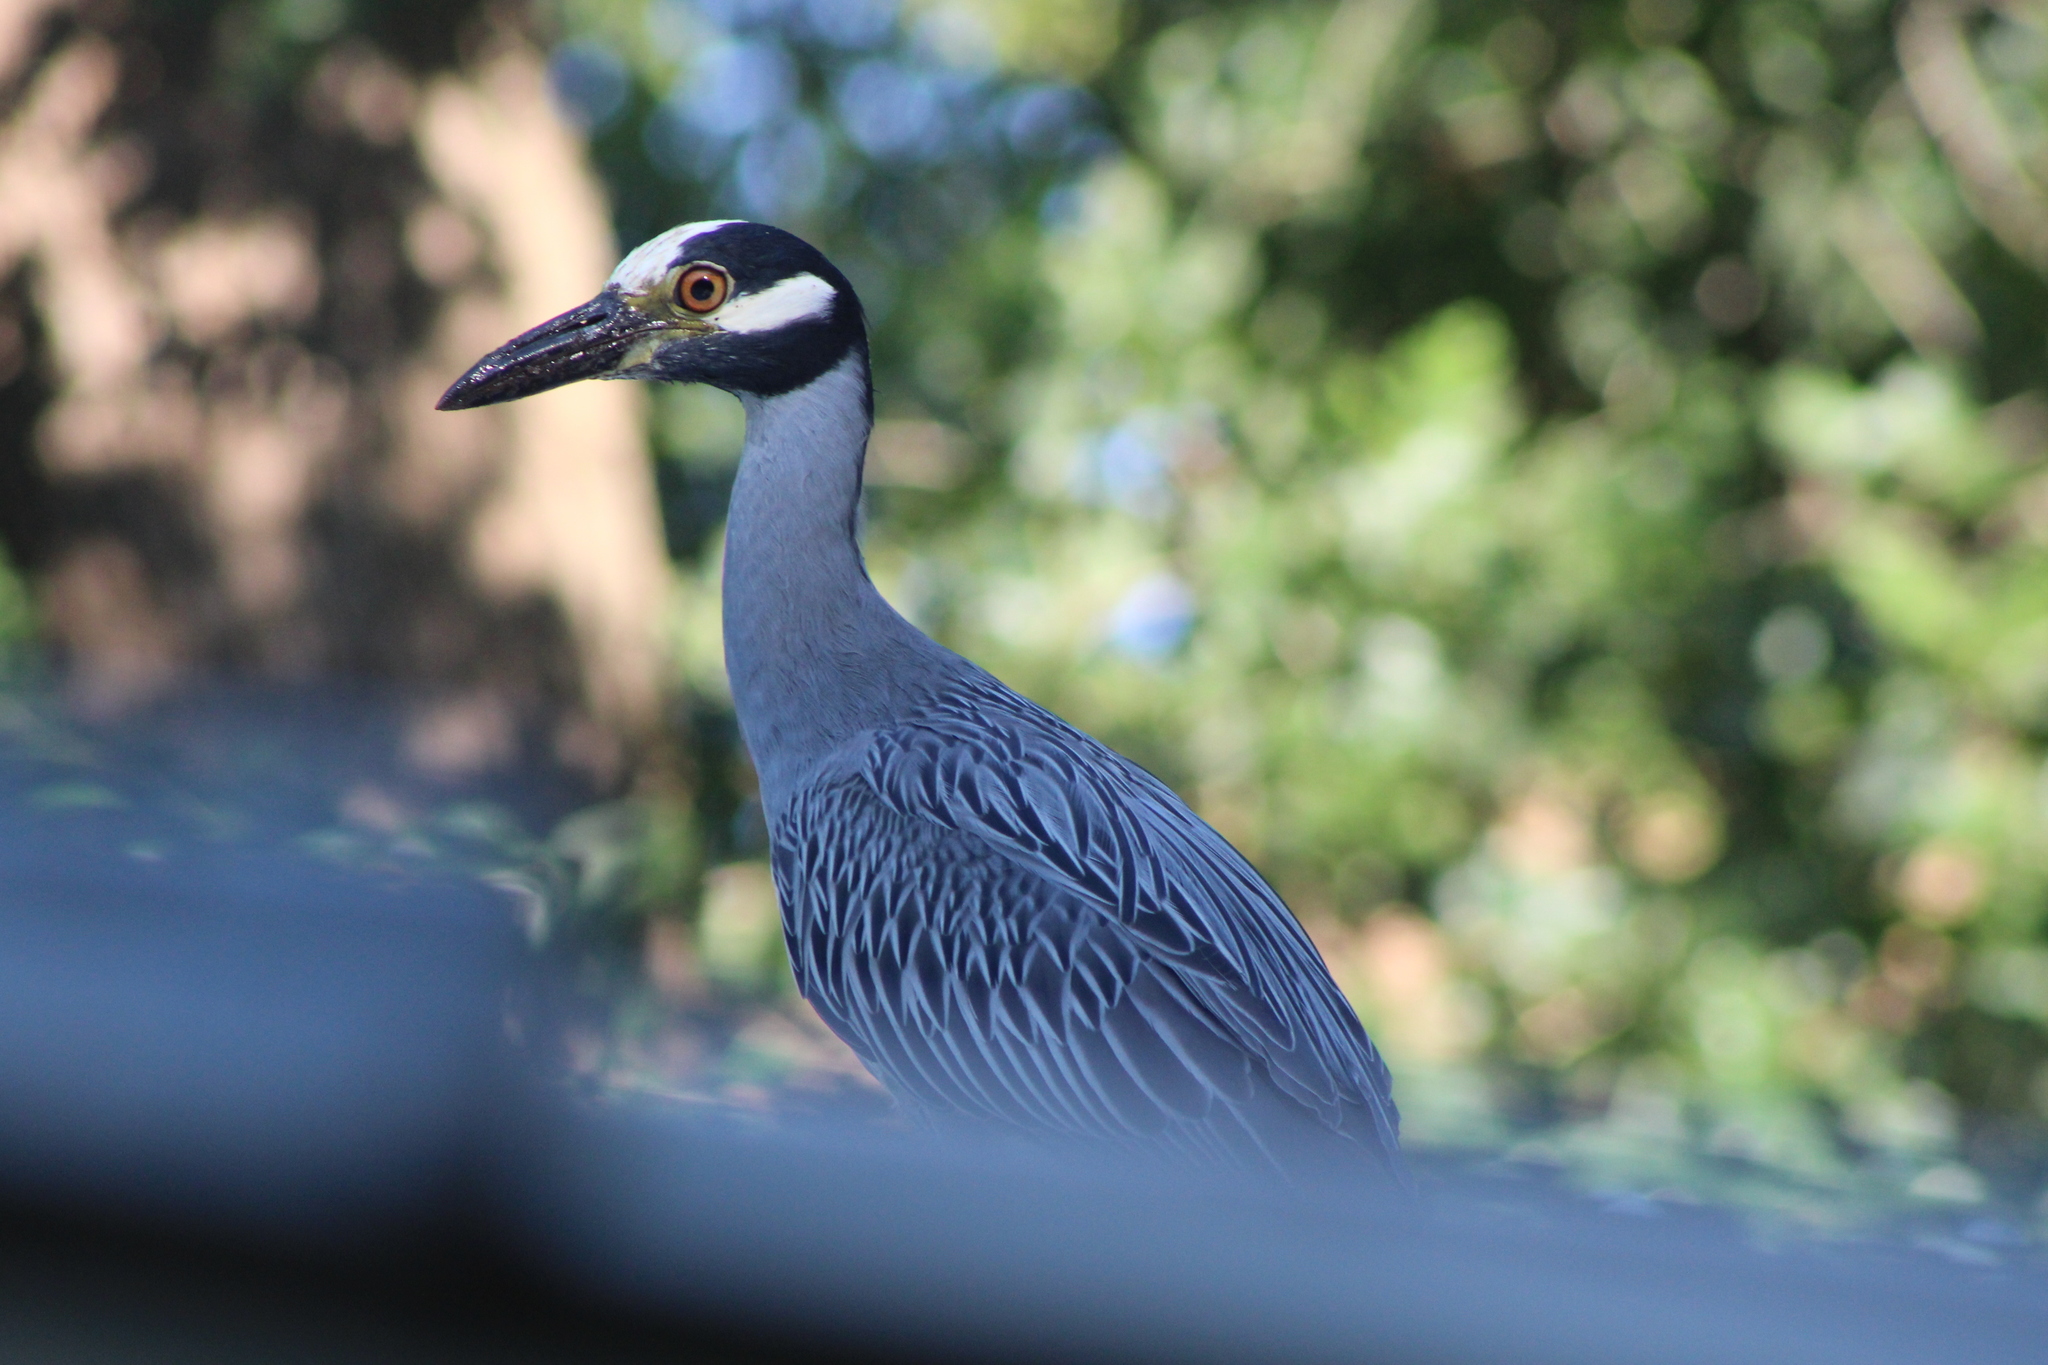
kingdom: Animalia
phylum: Chordata
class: Aves
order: Pelecaniformes
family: Ardeidae
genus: Nyctanassa
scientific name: Nyctanassa violacea
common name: Yellow-crowned night heron
